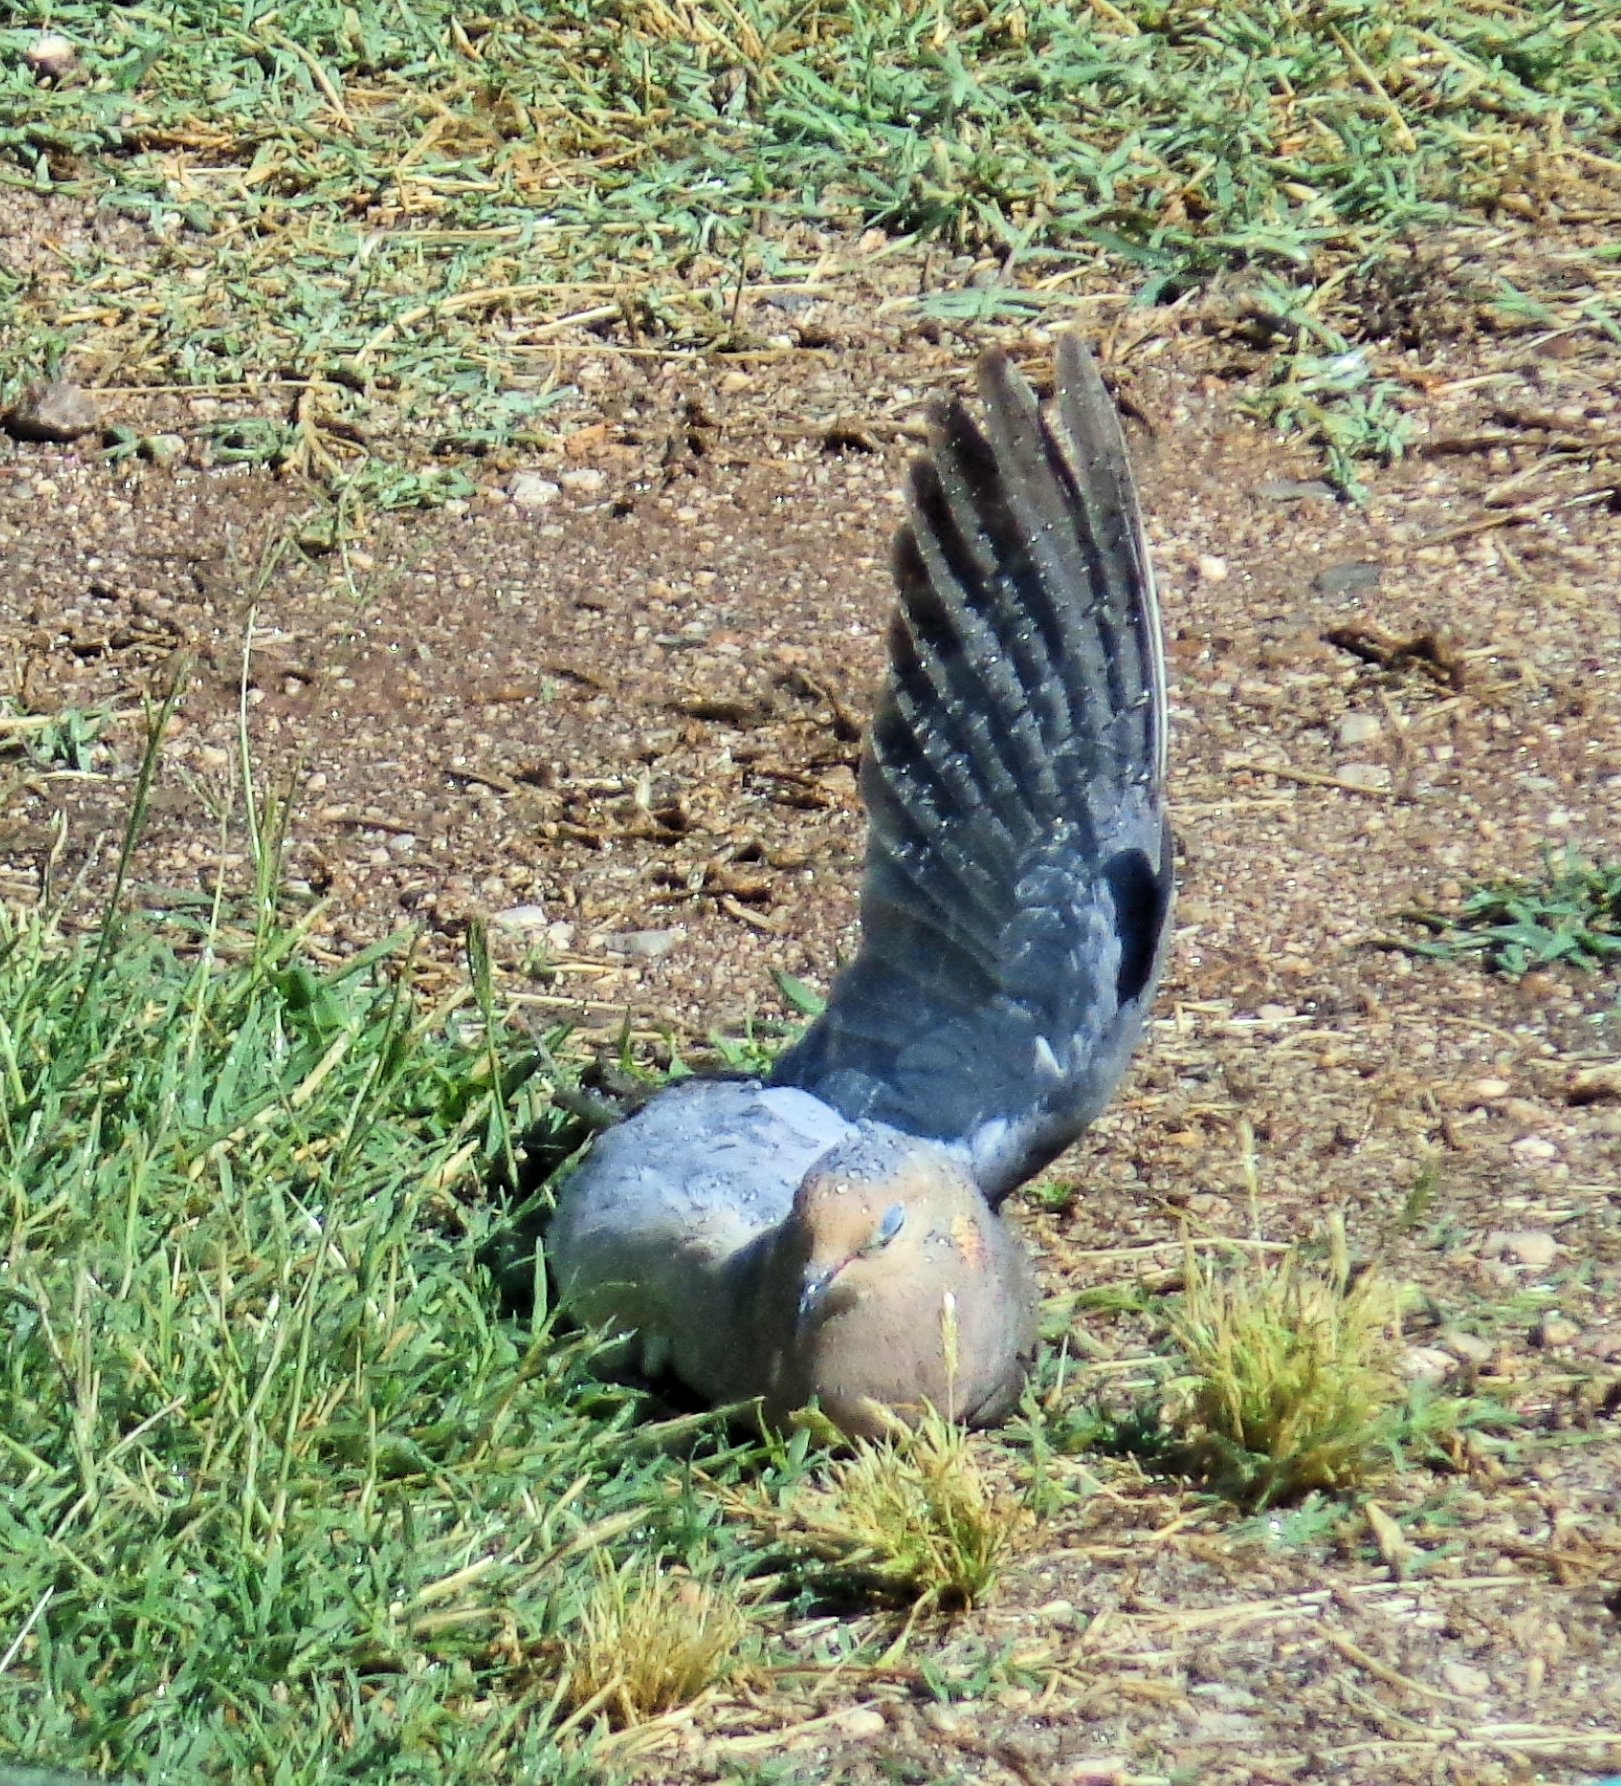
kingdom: Animalia
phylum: Chordata
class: Aves
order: Columbiformes
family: Columbidae
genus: Zenaida
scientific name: Zenaida macroura
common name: Mourning dove
